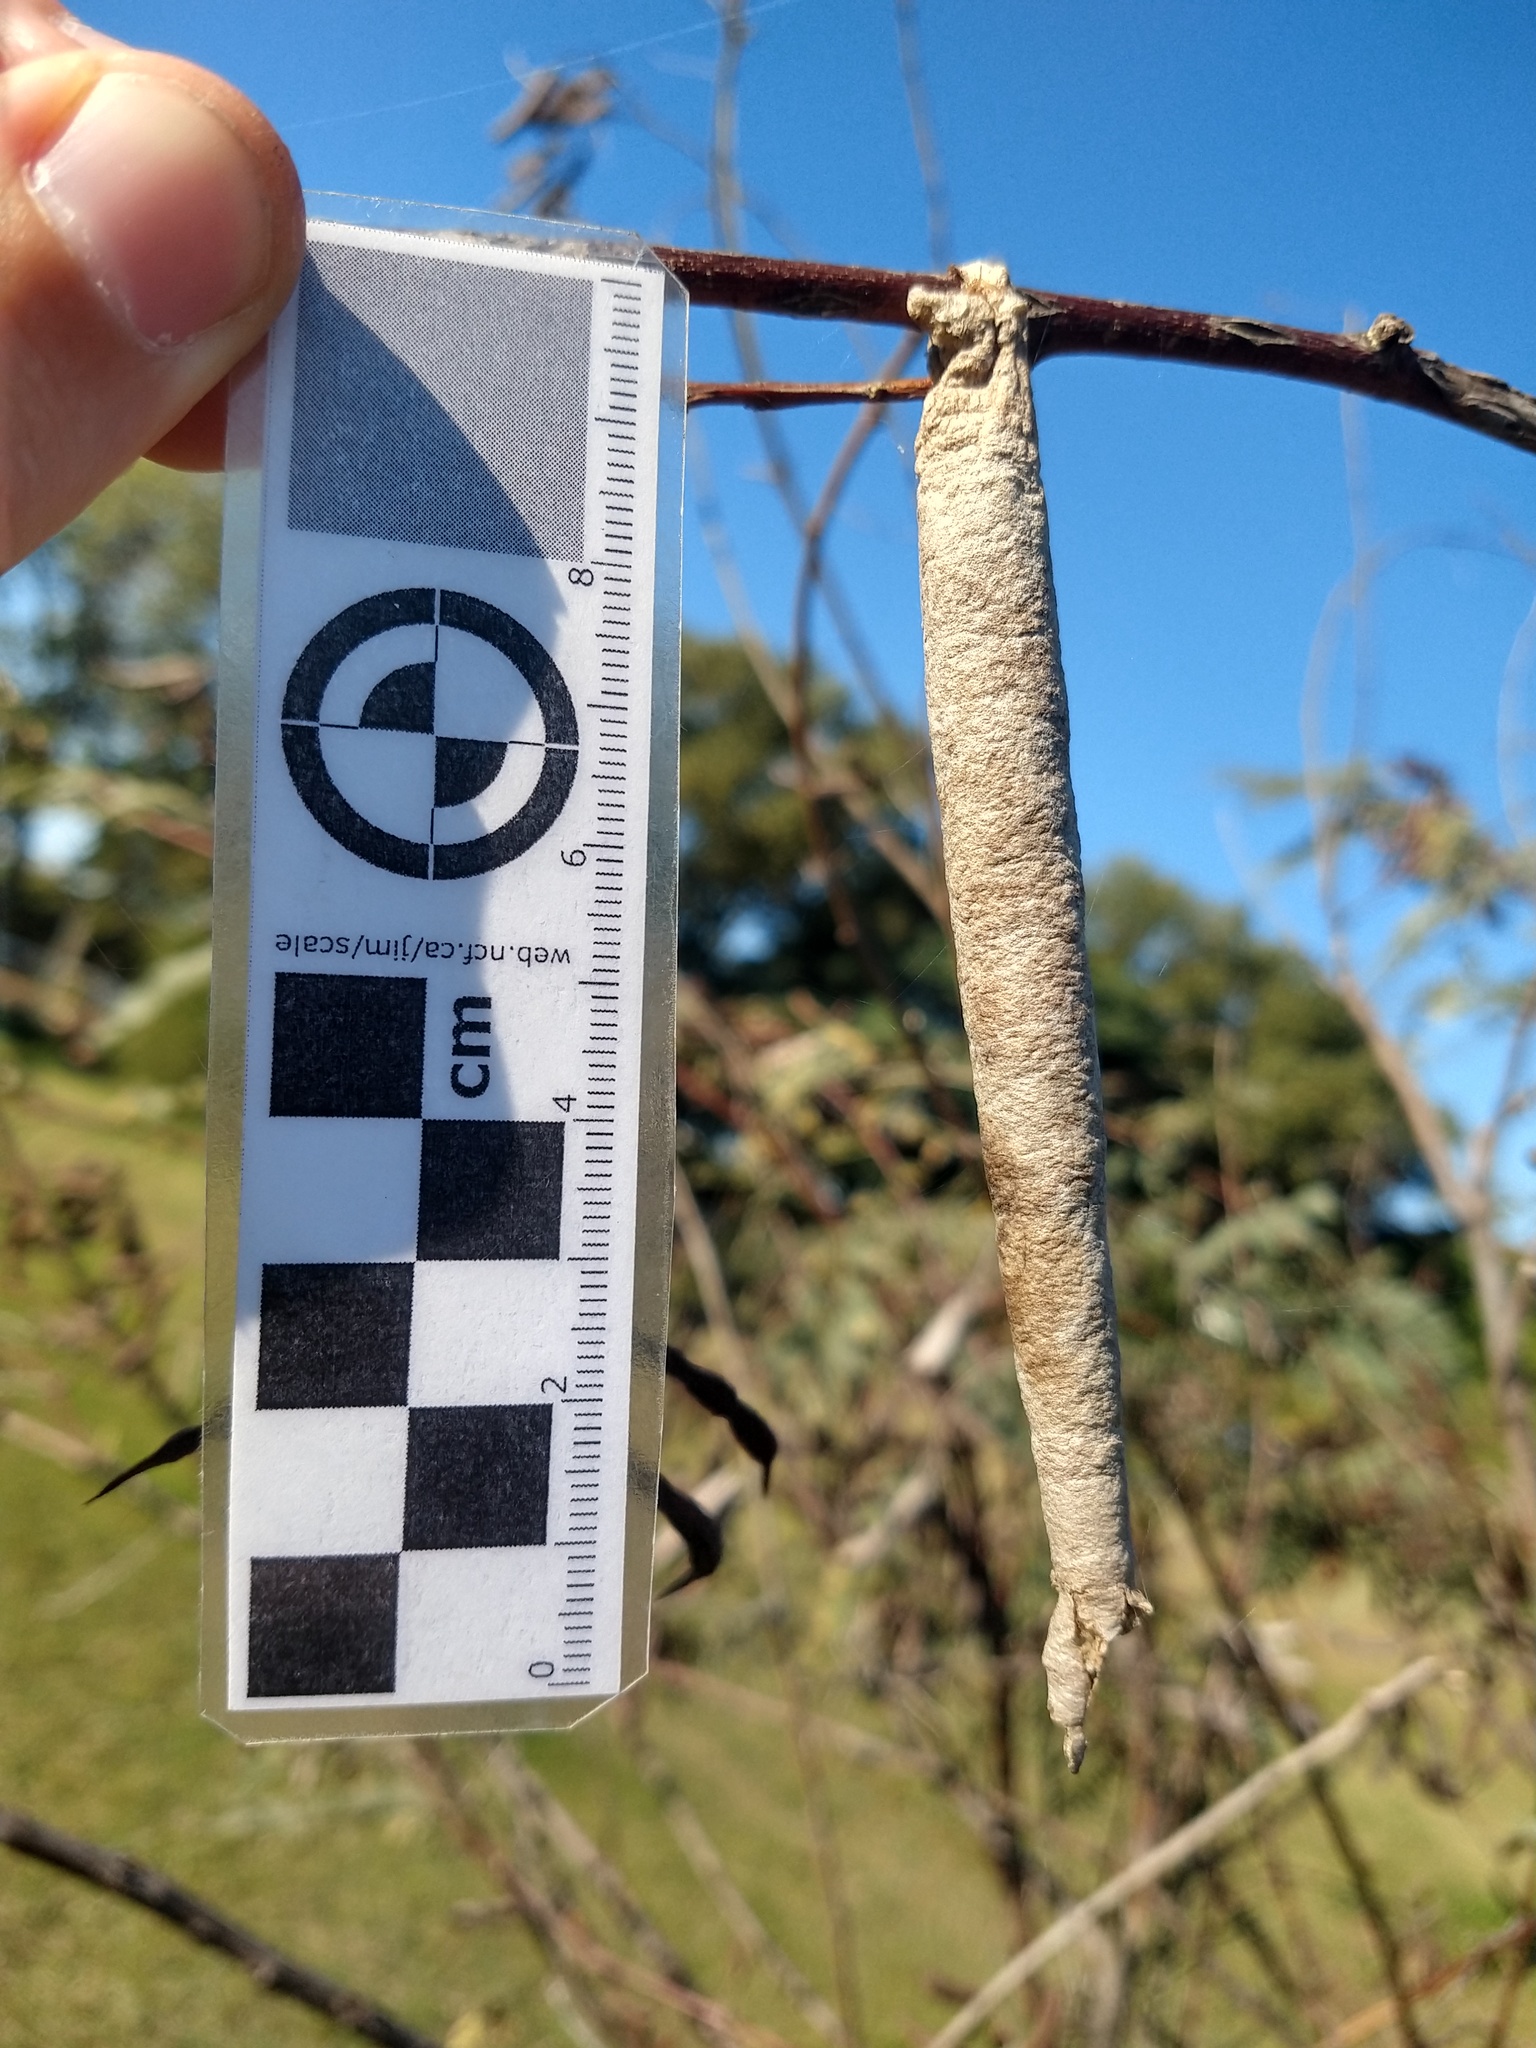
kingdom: Animalia
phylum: Arthropoda
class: Insecta
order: Lepidoptera
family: Psychidae
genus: Oiketicus
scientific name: Oiketicus geyeri
